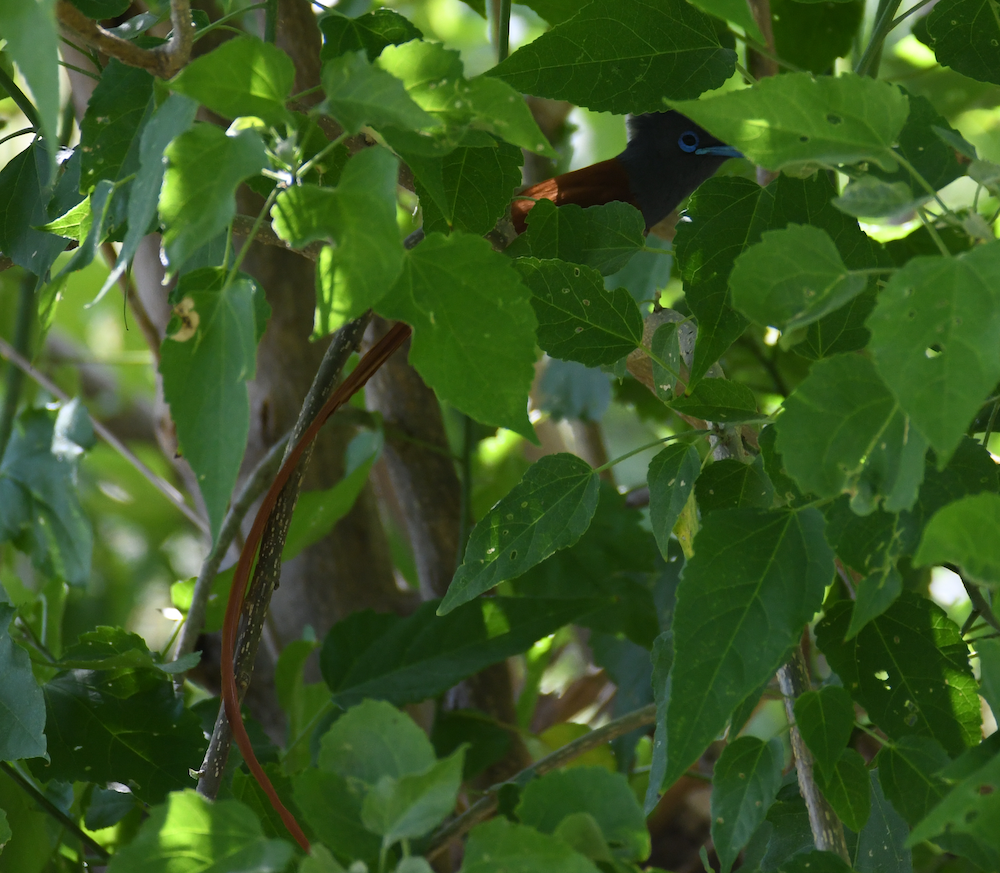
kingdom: Animalia
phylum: Chordata
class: Aves
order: Passeriformes
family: Monarchidae
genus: Terpsiphone
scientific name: Terpsiphone viridis
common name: African paradise flycatcher
